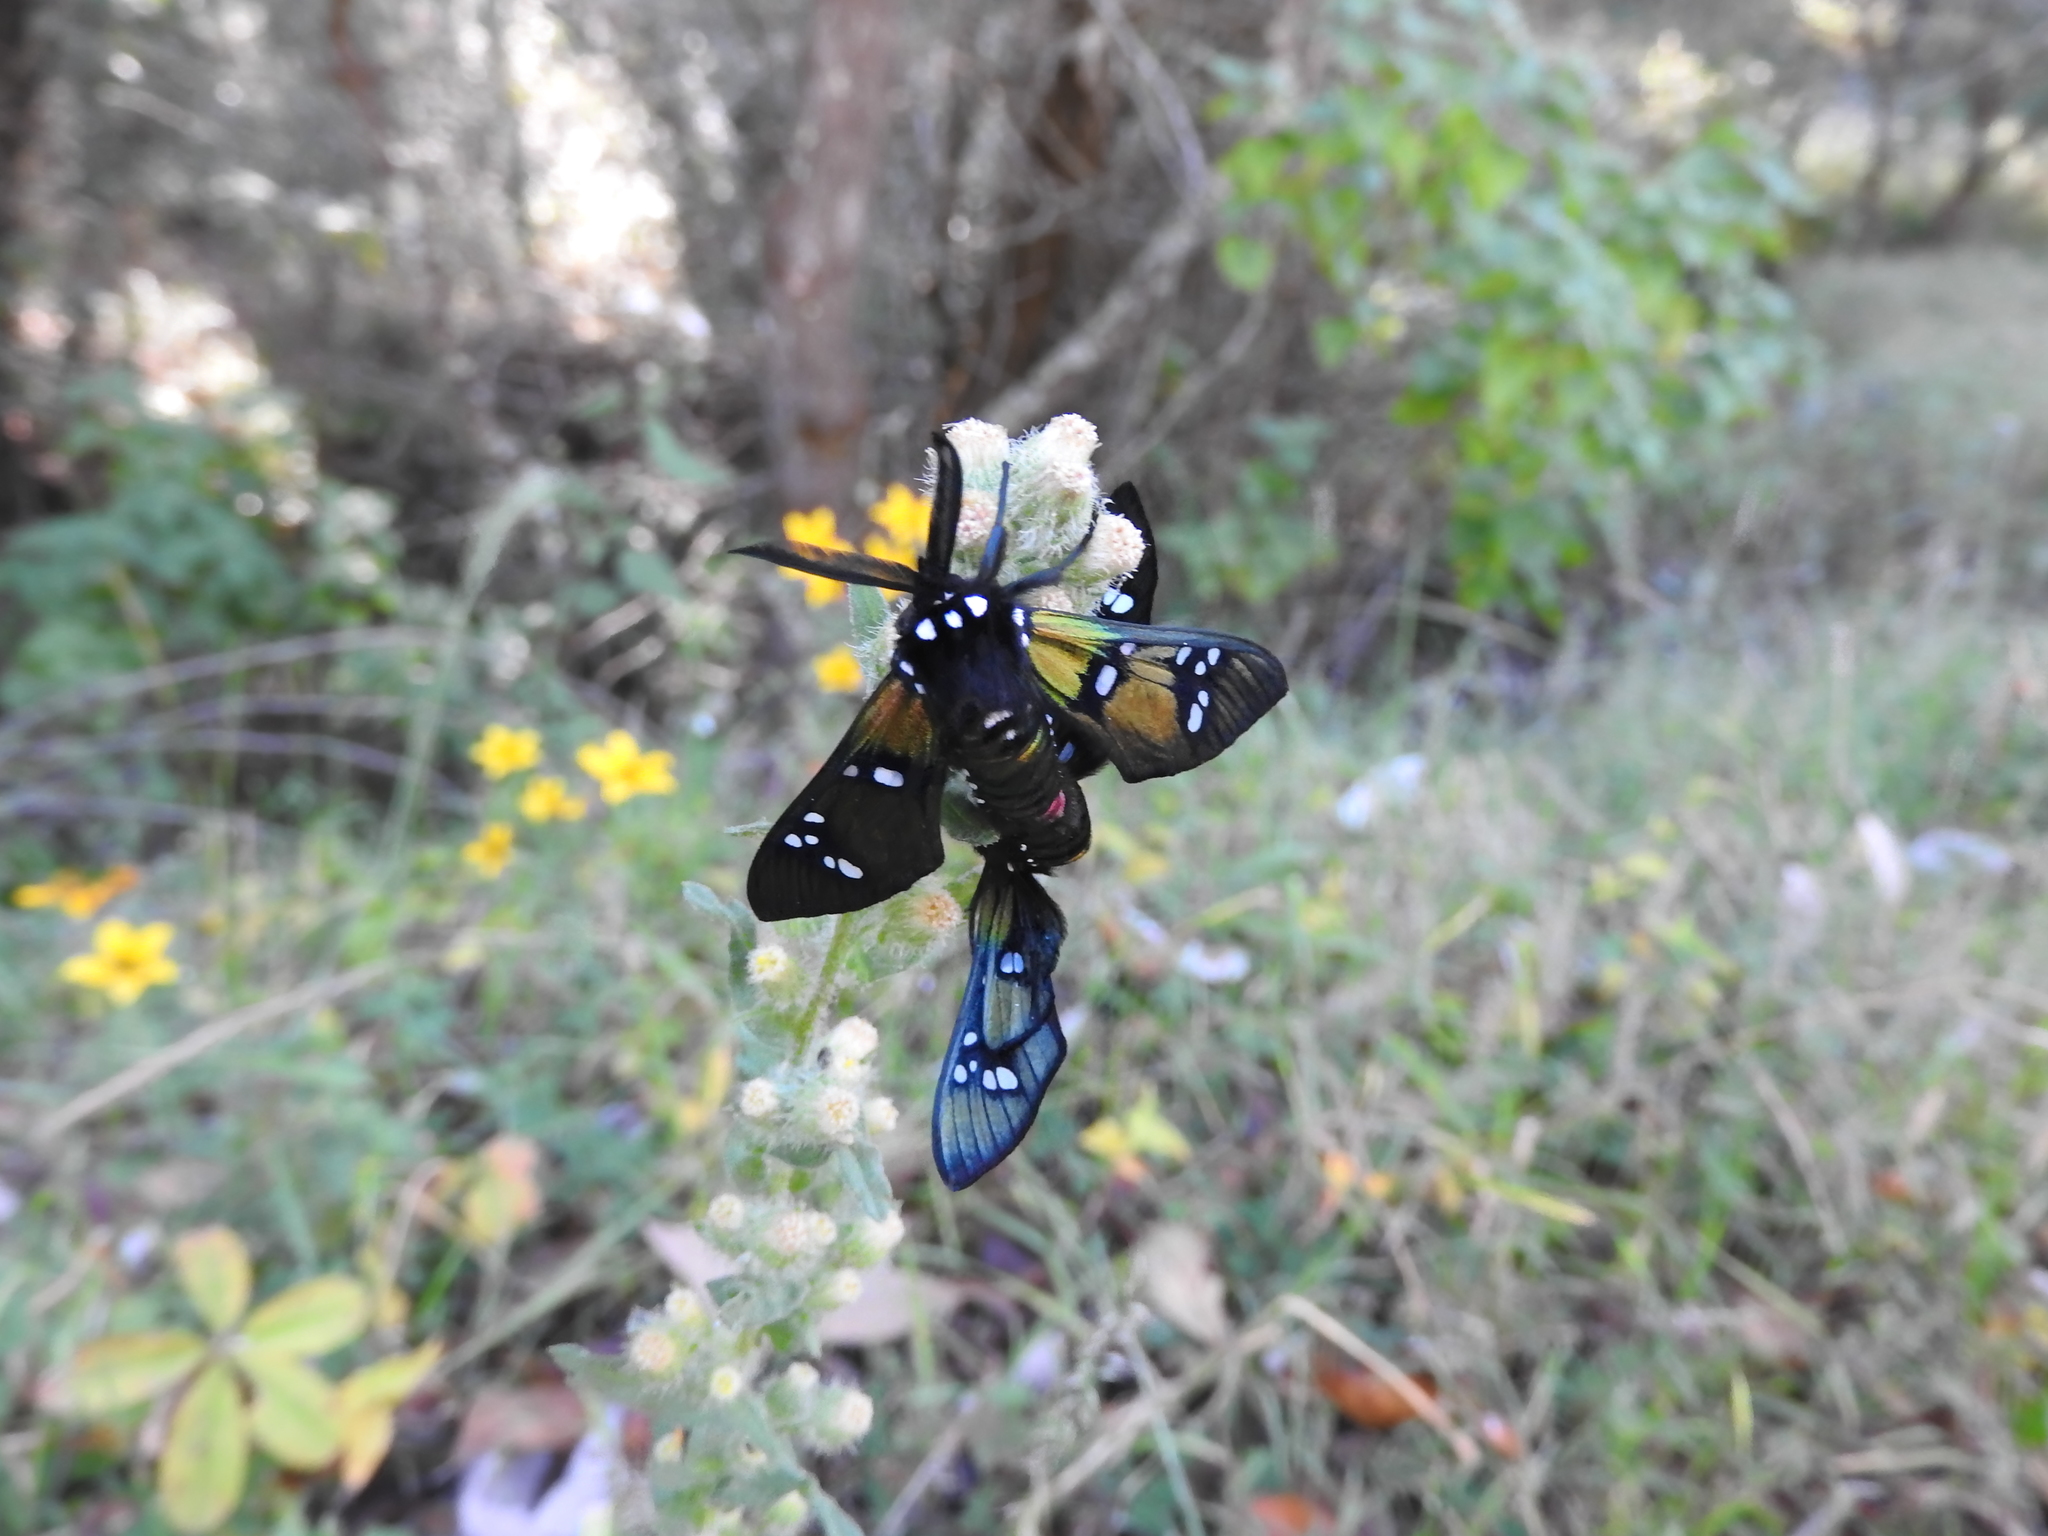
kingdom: Animalia
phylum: Arthropoda
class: Insecta
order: Lepidoptera
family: Erebidae
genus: Chrysocale
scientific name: Chrysocale principalis
